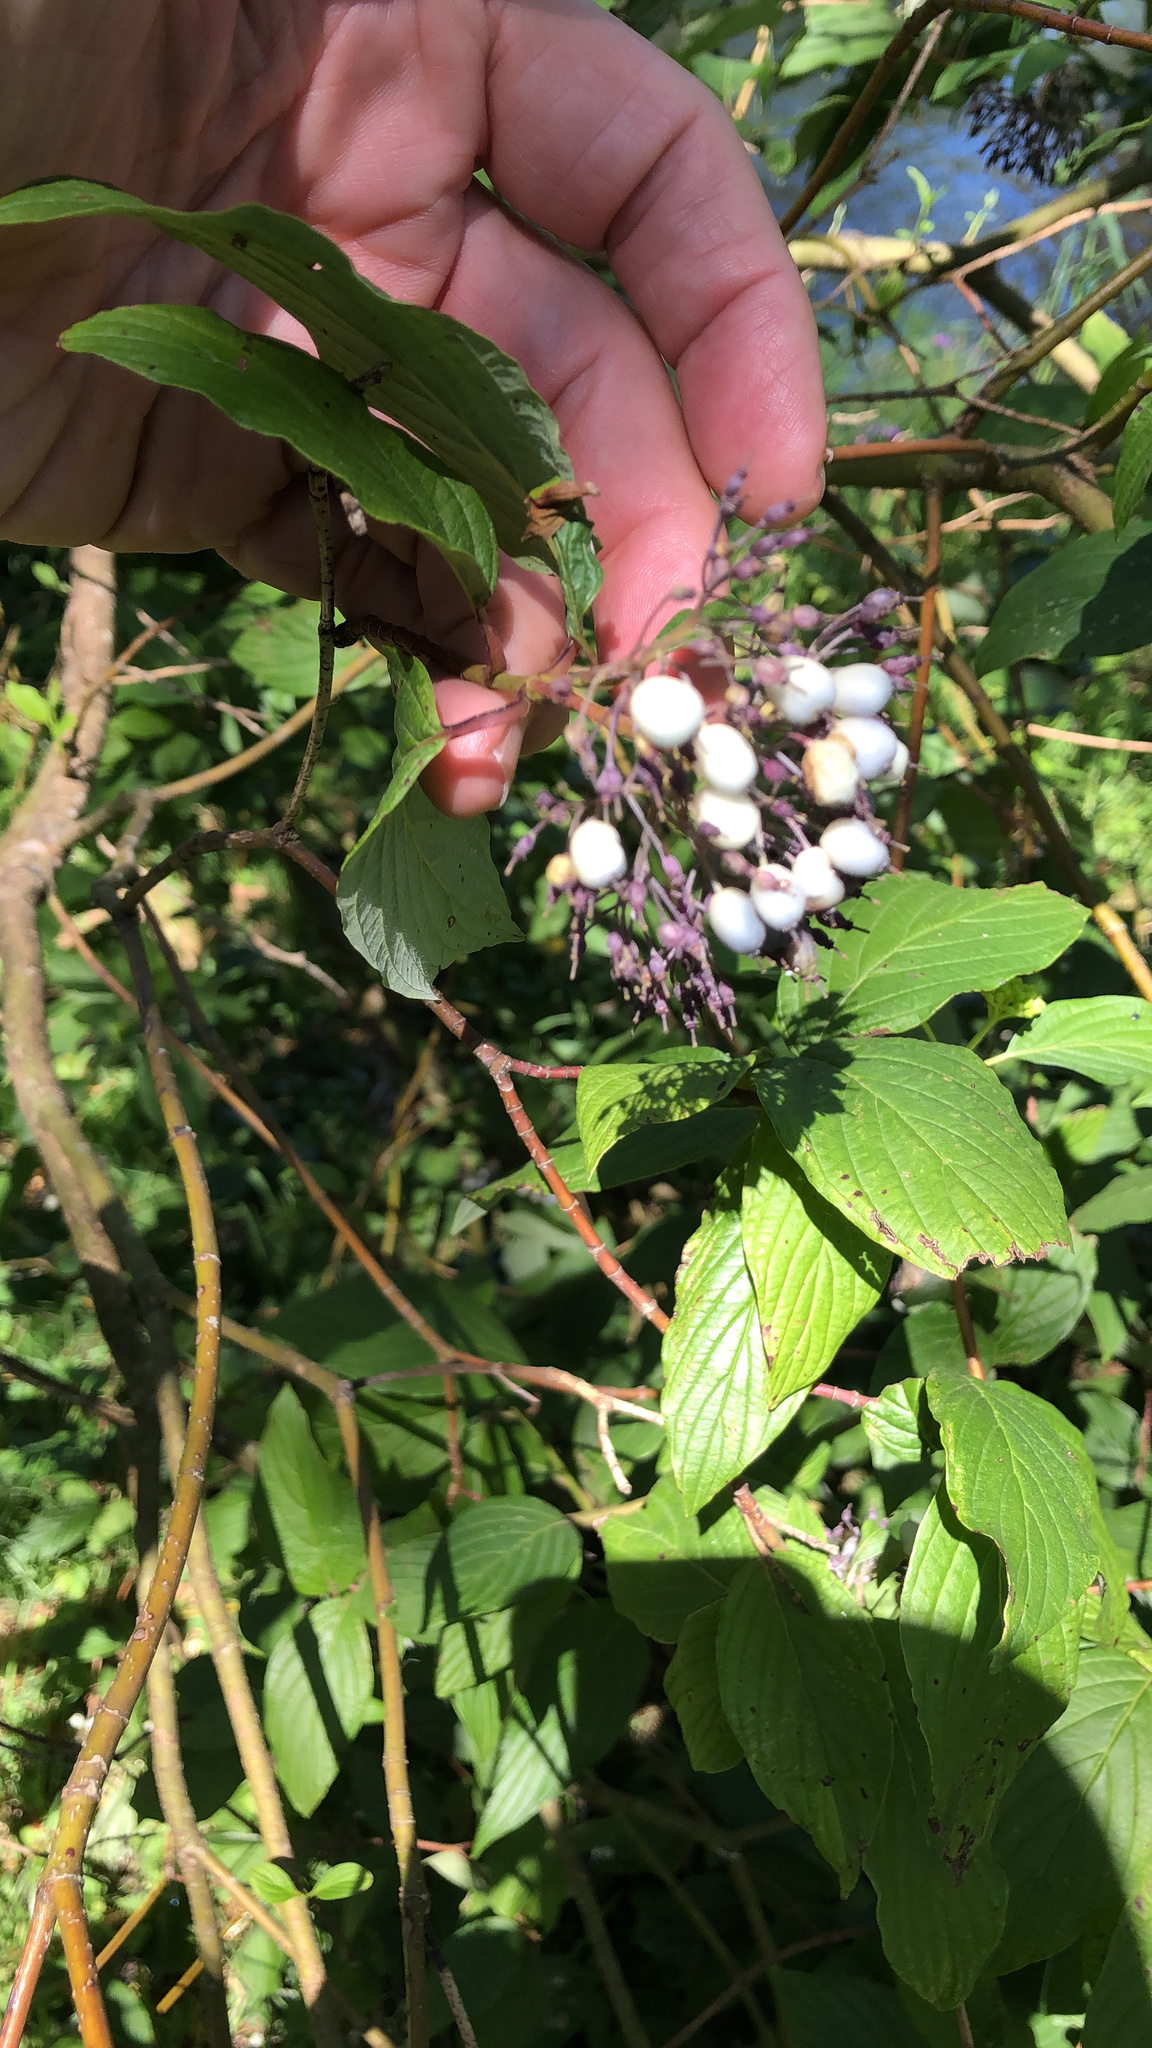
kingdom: Plantae
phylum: Tracheophyta
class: Magnoliopsida
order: Cornales
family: Cornaceae
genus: Cornus
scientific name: Cornus sericea
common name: Red-osier dogwood
